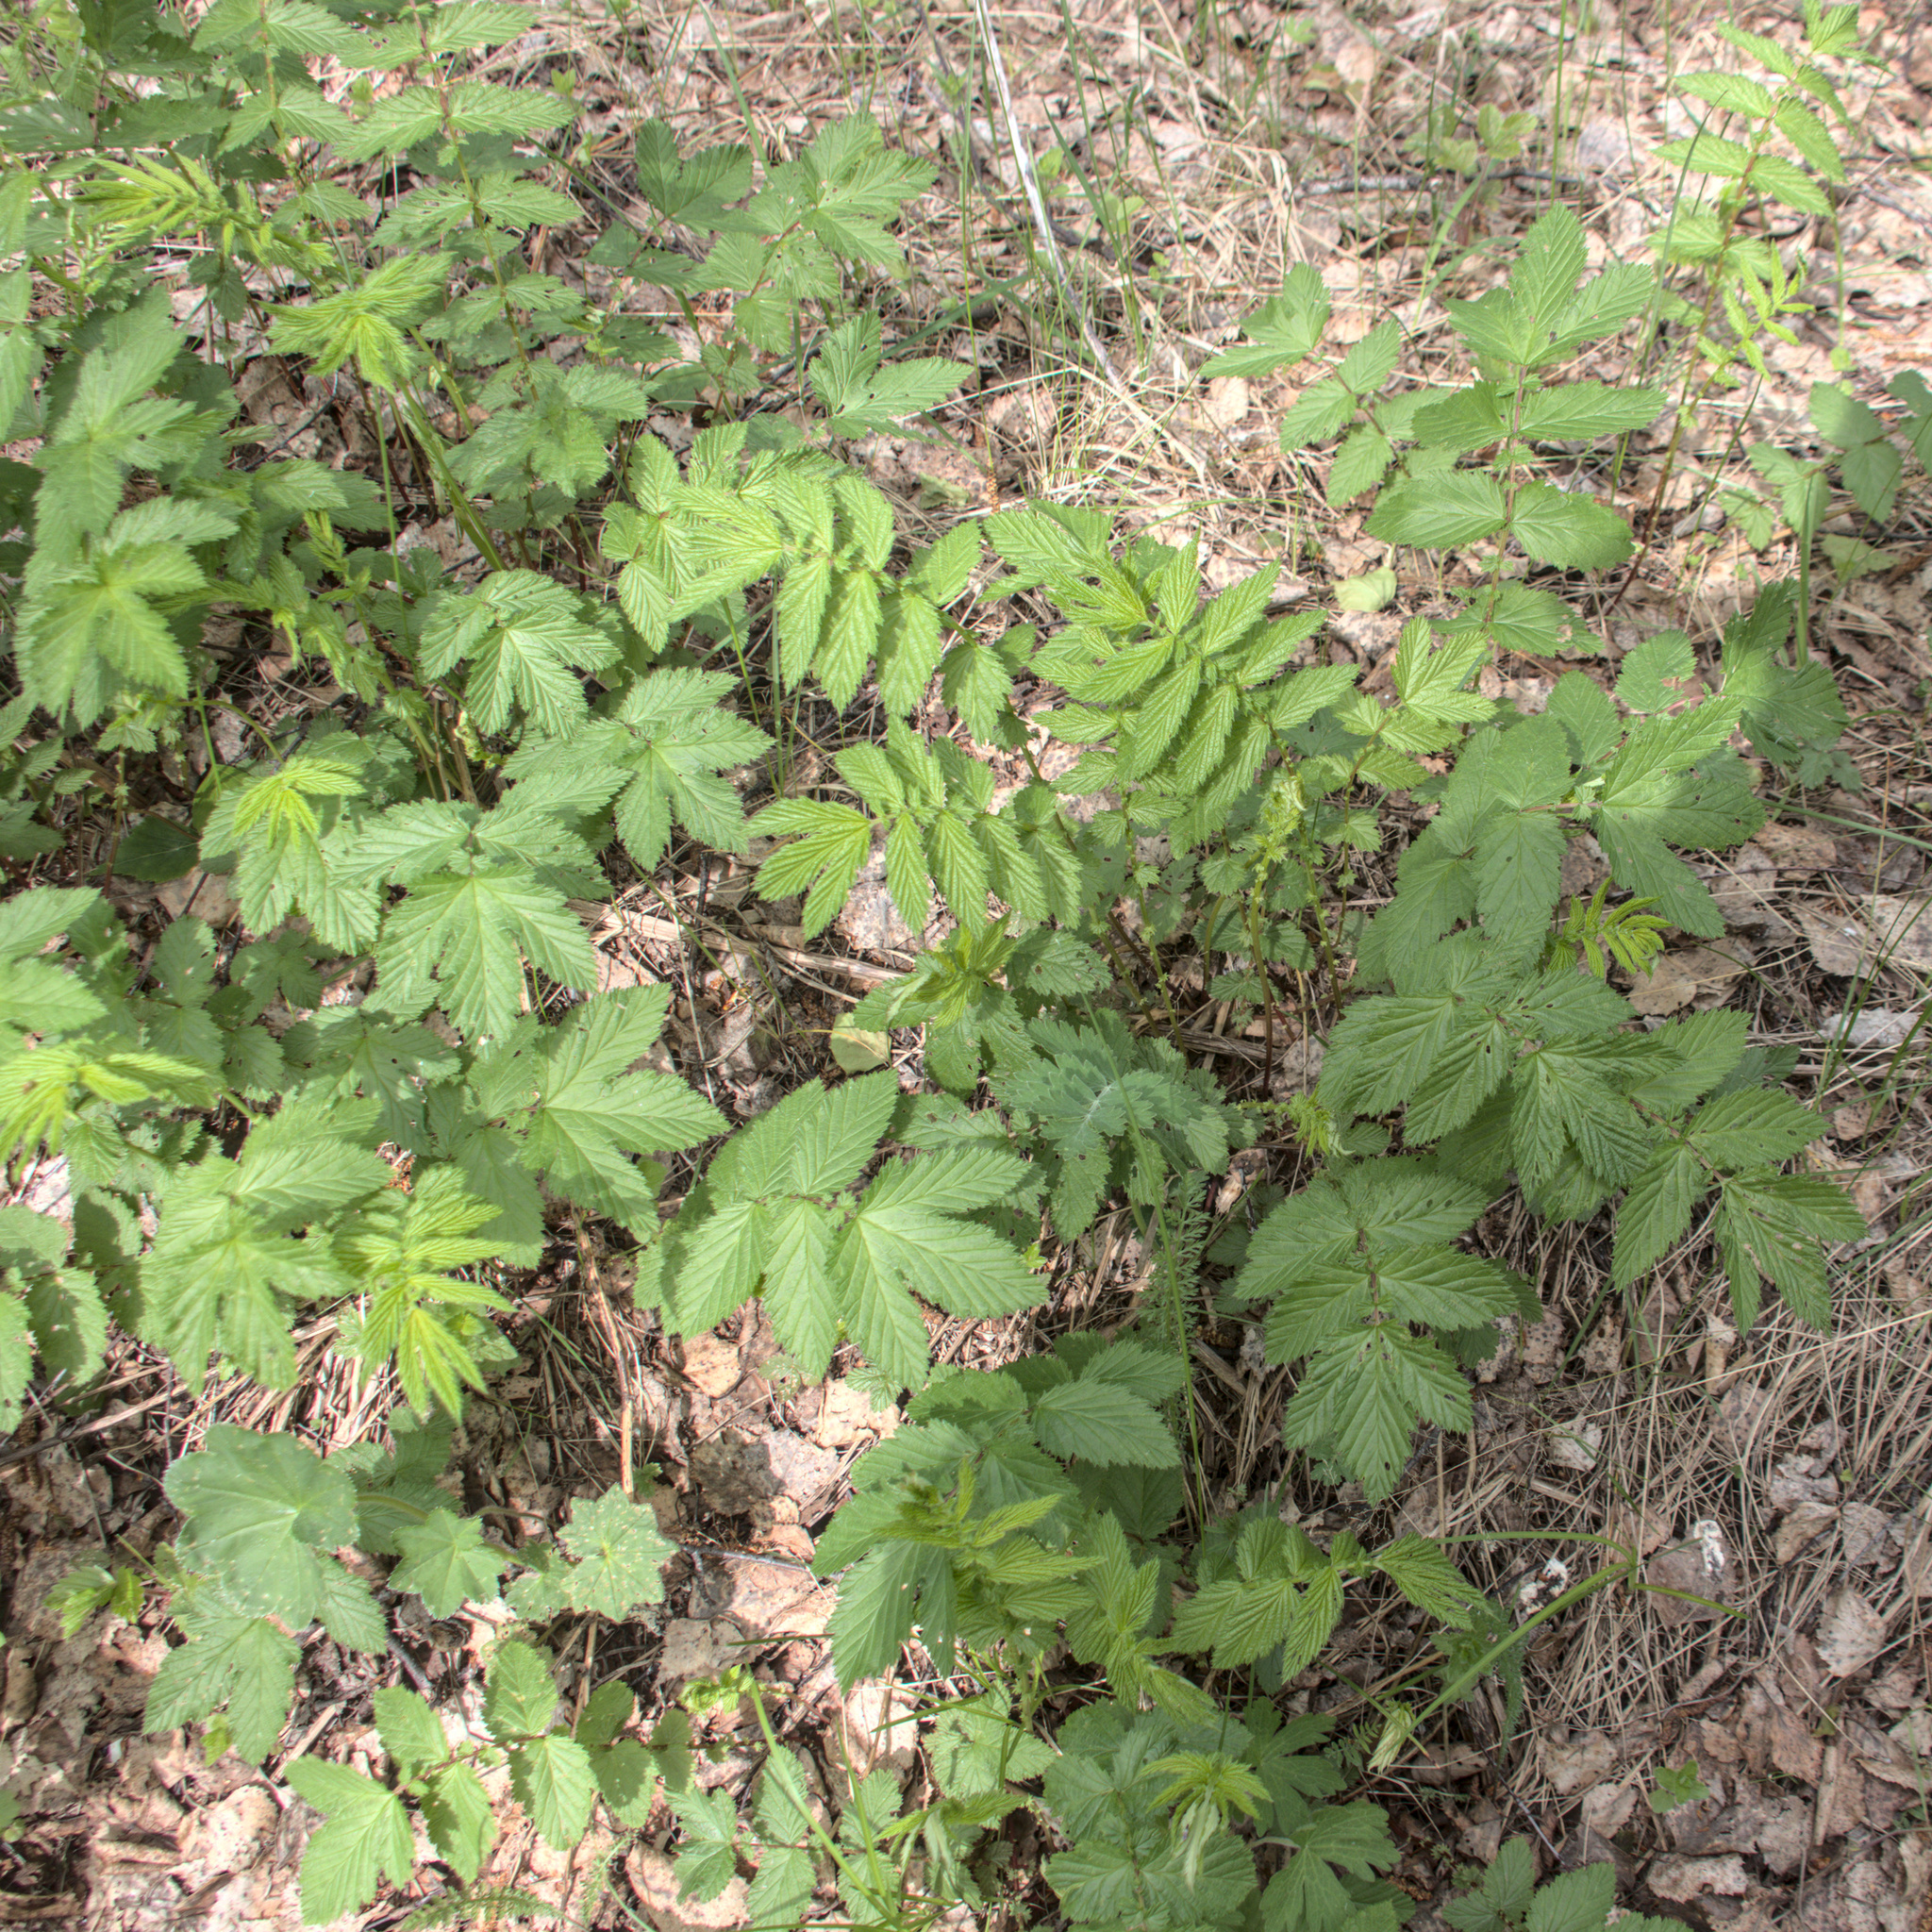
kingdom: Plantae
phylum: Tracheophyta
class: Magnoliopsida
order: Rosales
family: Rosaceae
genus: Filipendula
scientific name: Filipendula ulmaria
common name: Meadowsweet
